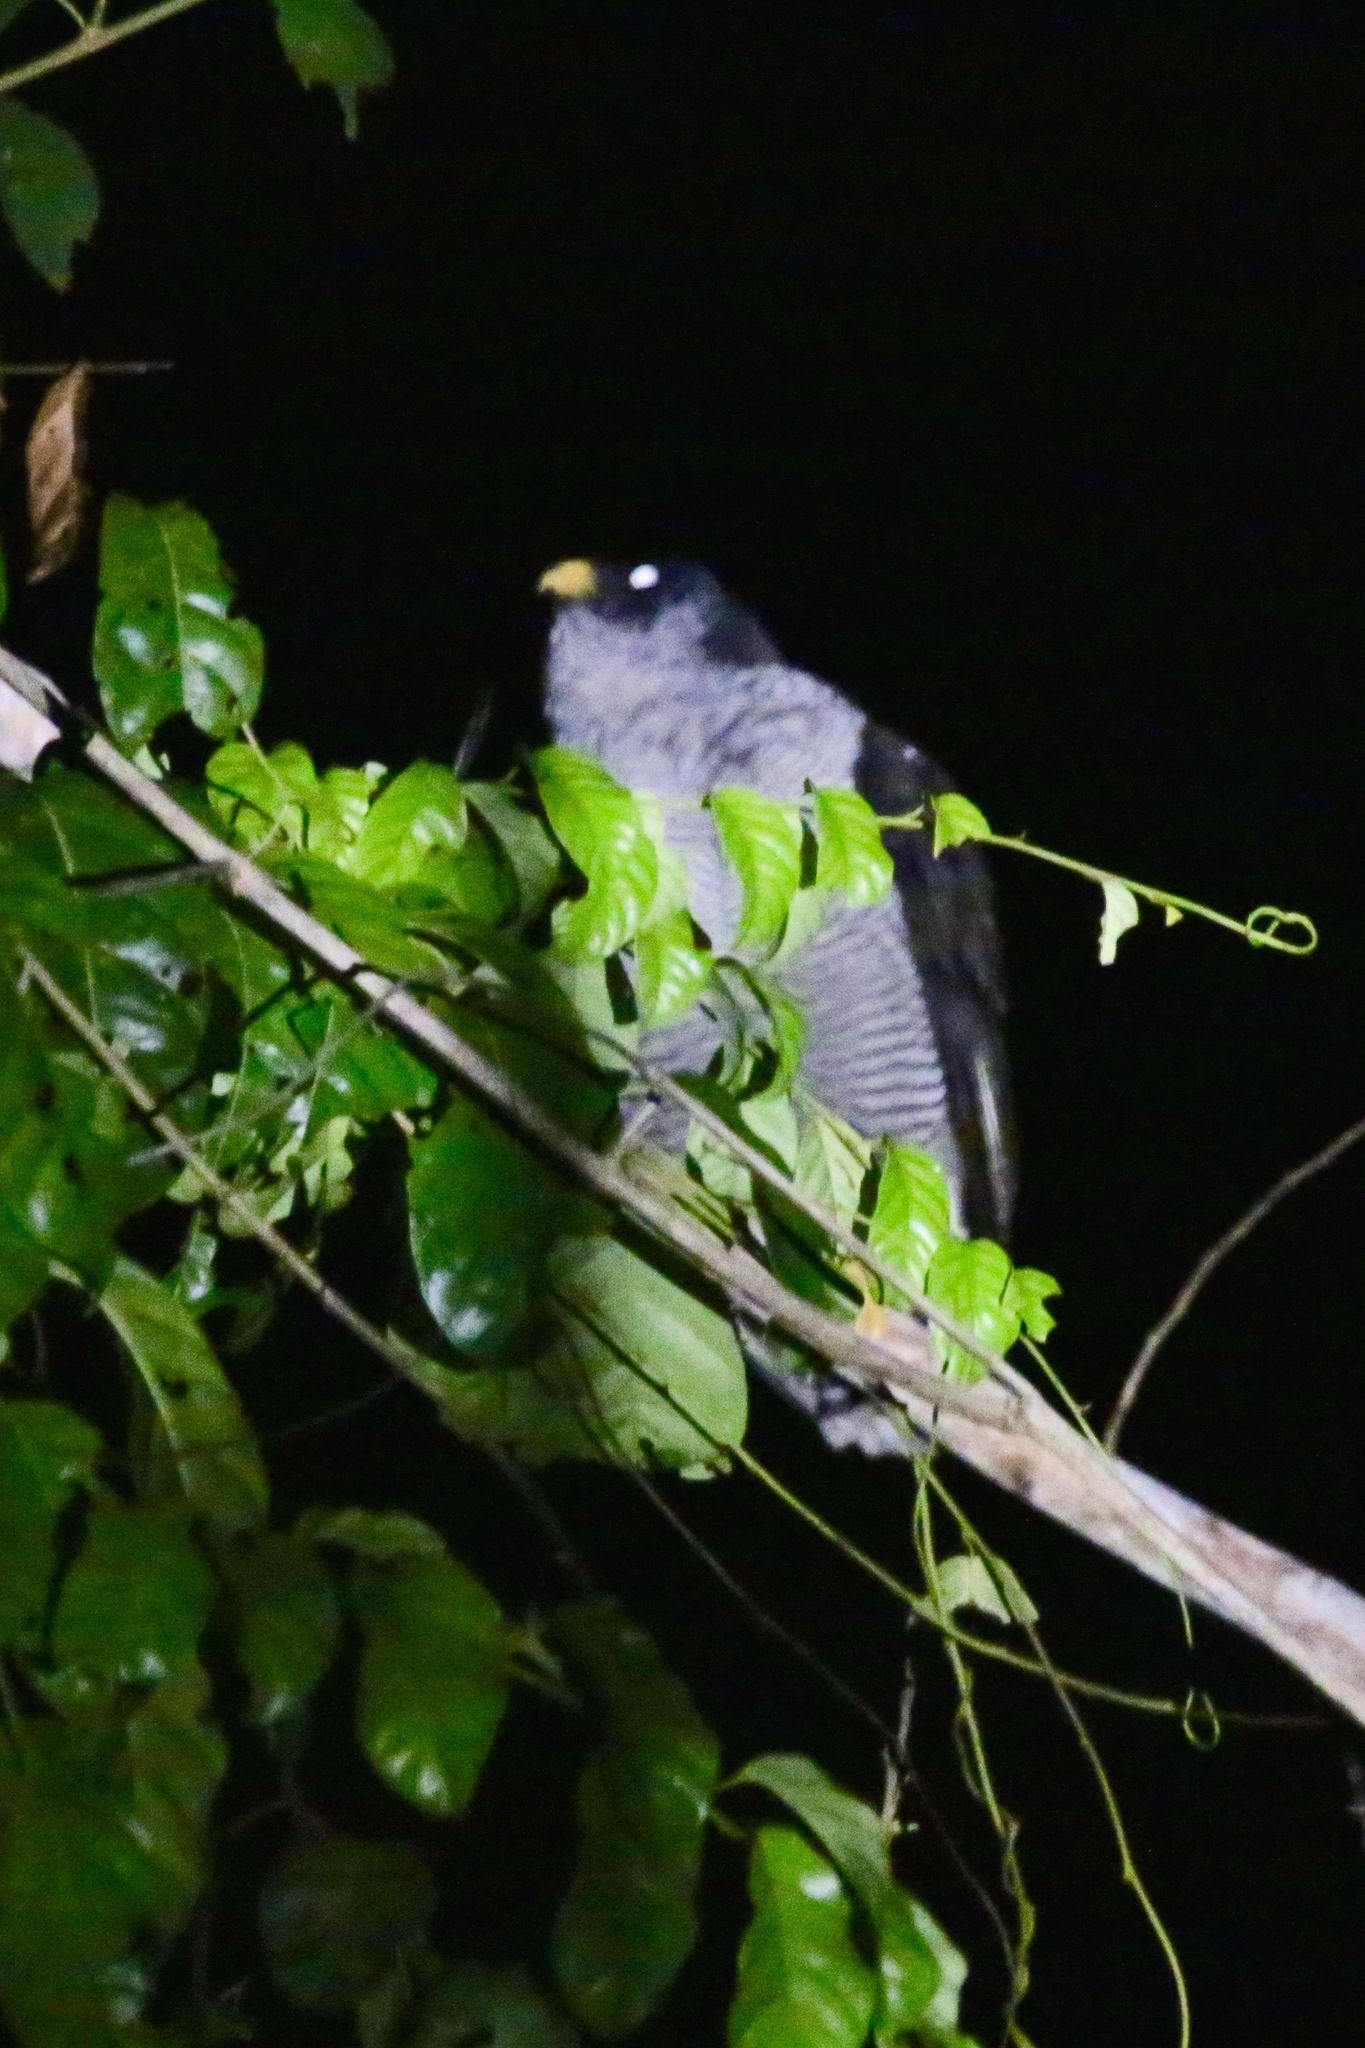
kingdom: Animalia
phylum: Chordata
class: Aves
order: Strigiformes
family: Strigidae
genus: Strix
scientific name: Strix nigrolineata
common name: Black-and-white owl
